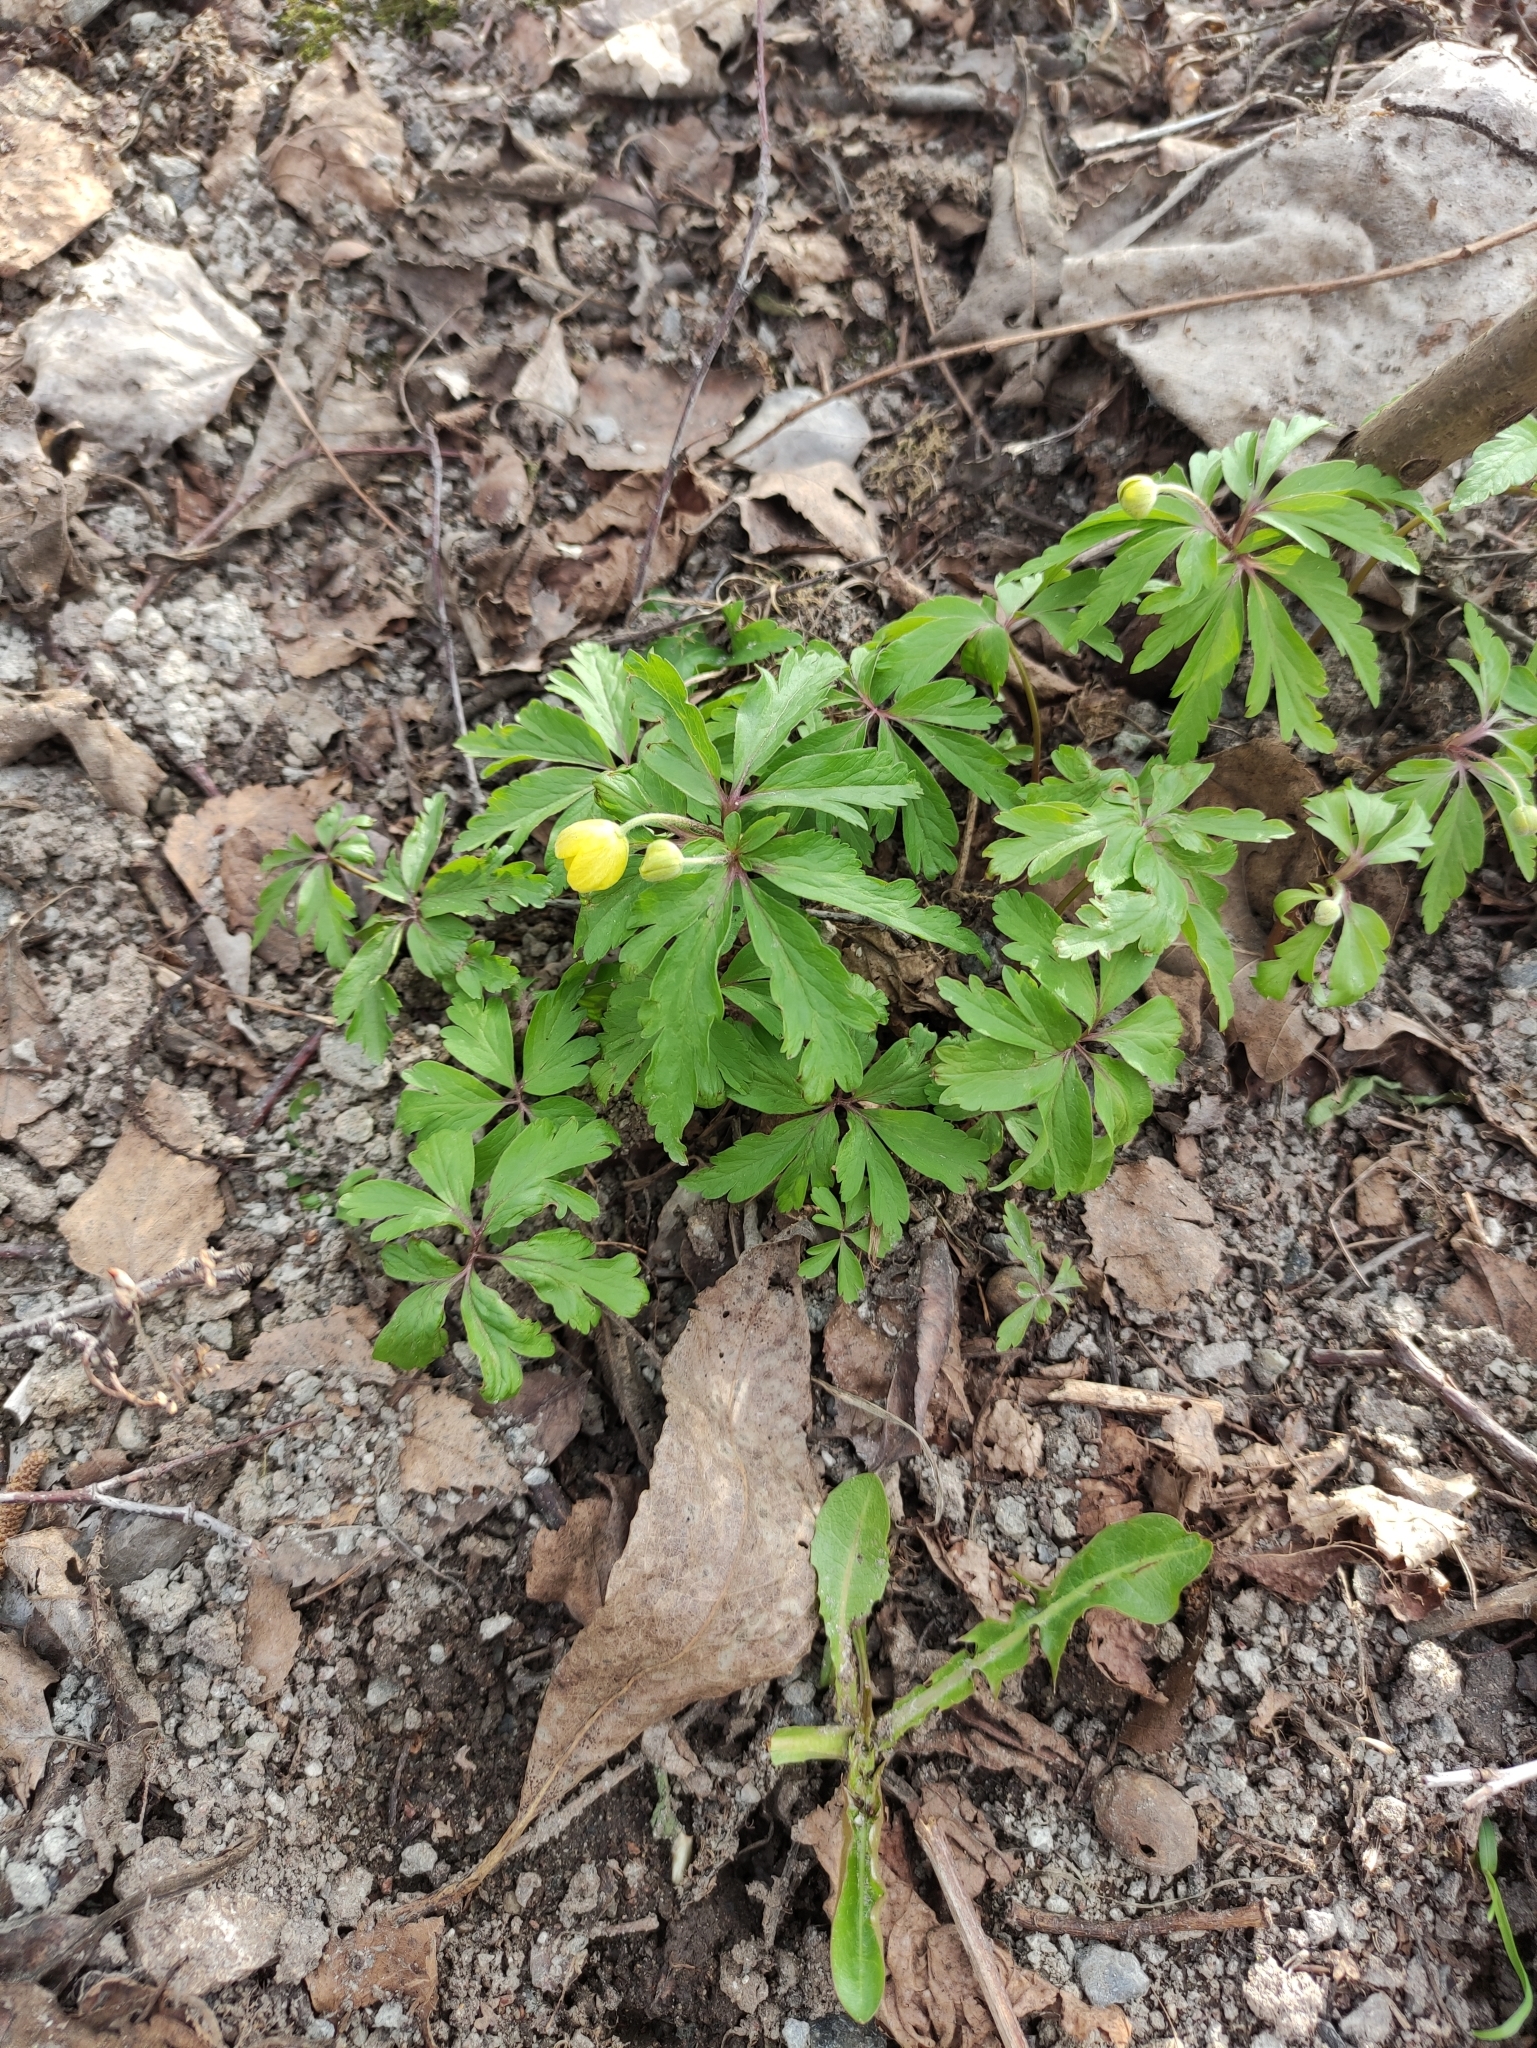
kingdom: Plantae
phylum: Tracheophyta
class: Magnoliopsida
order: Ranunculales
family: Ranunculaceae
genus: Anemone
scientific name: Anemone ranunculoides
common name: Yellow anemone
